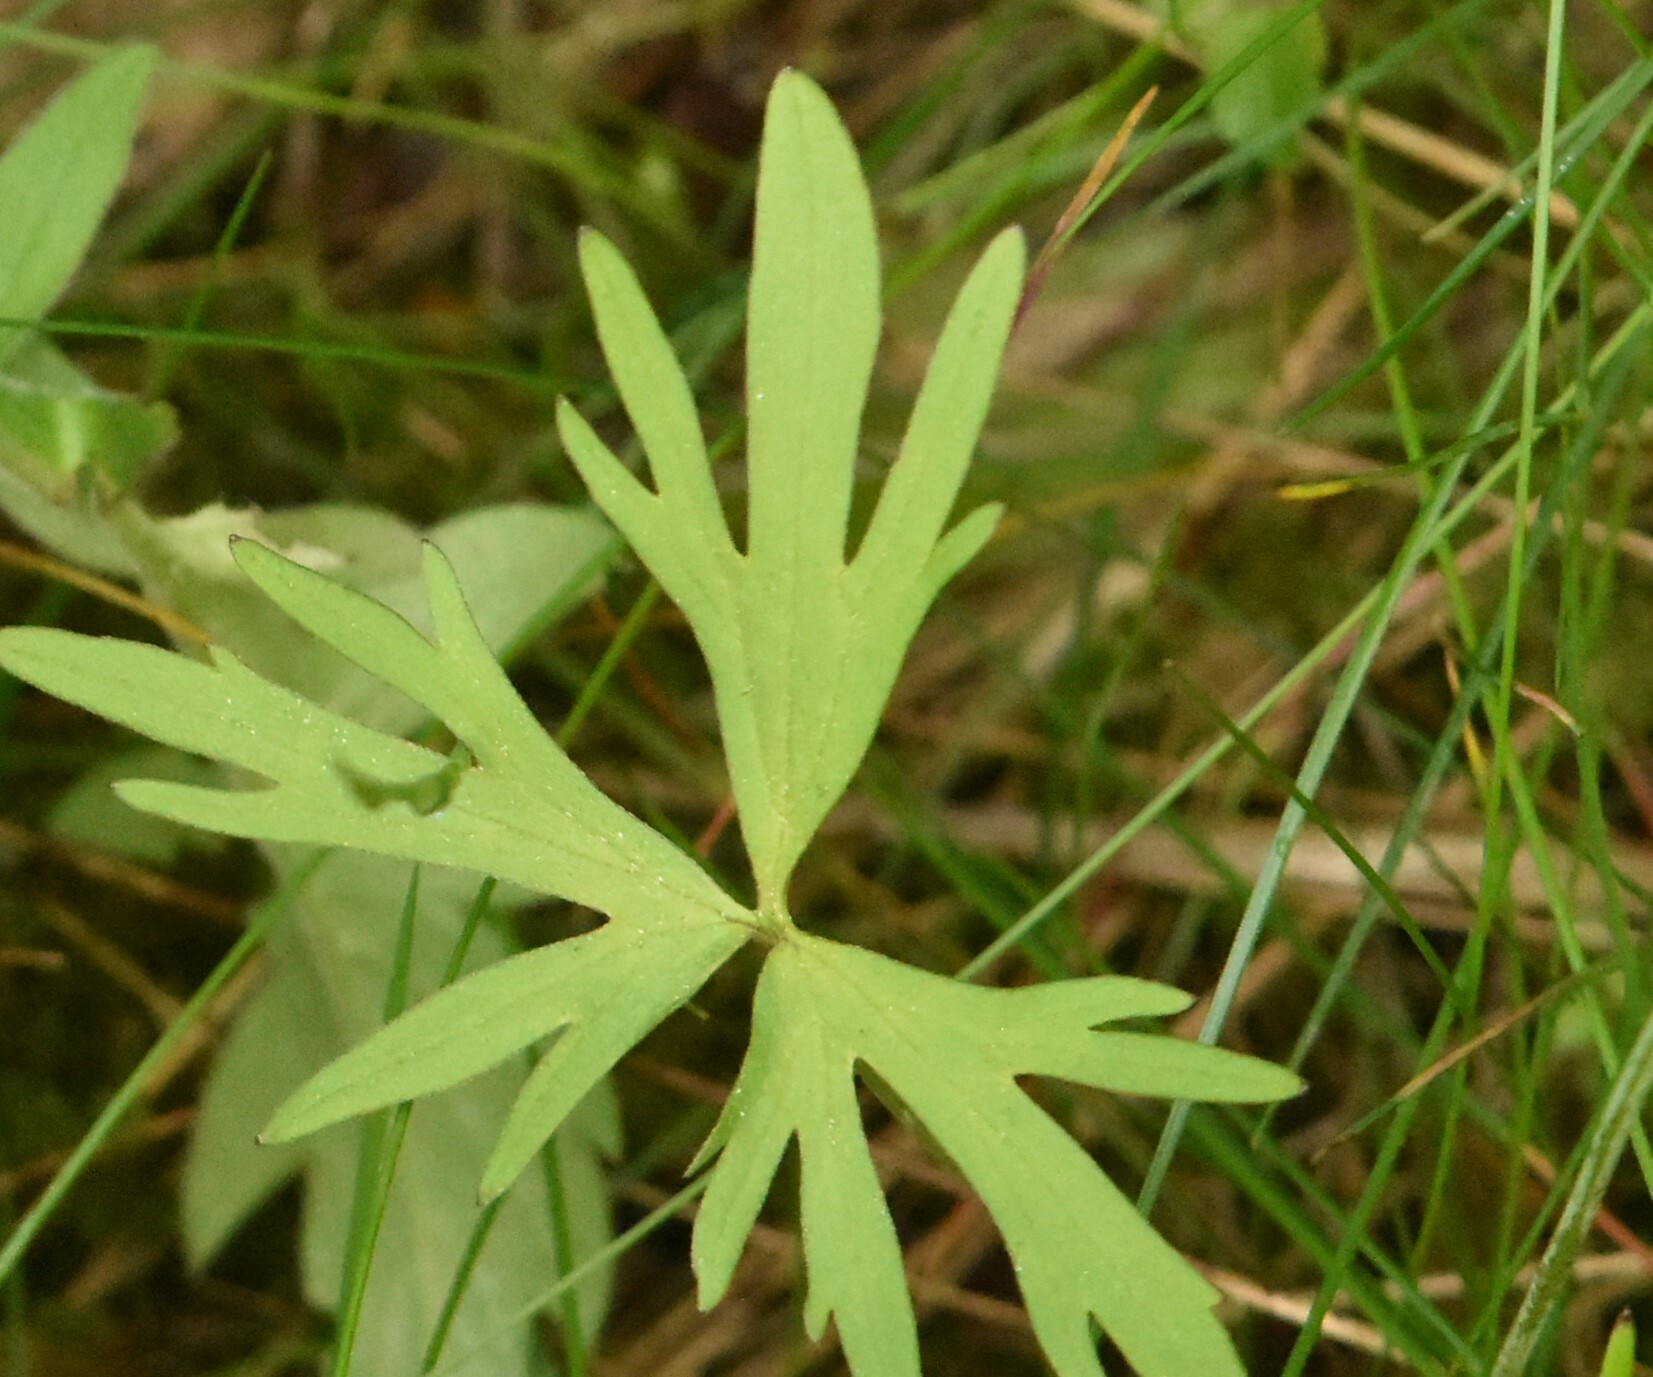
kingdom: Plantae
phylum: Tracheophyta
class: Magnoliopsida
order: Ranunculales
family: Ranunculaceae
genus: Ranunculus
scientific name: Ranunculus acris
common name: Meadow buttercup
